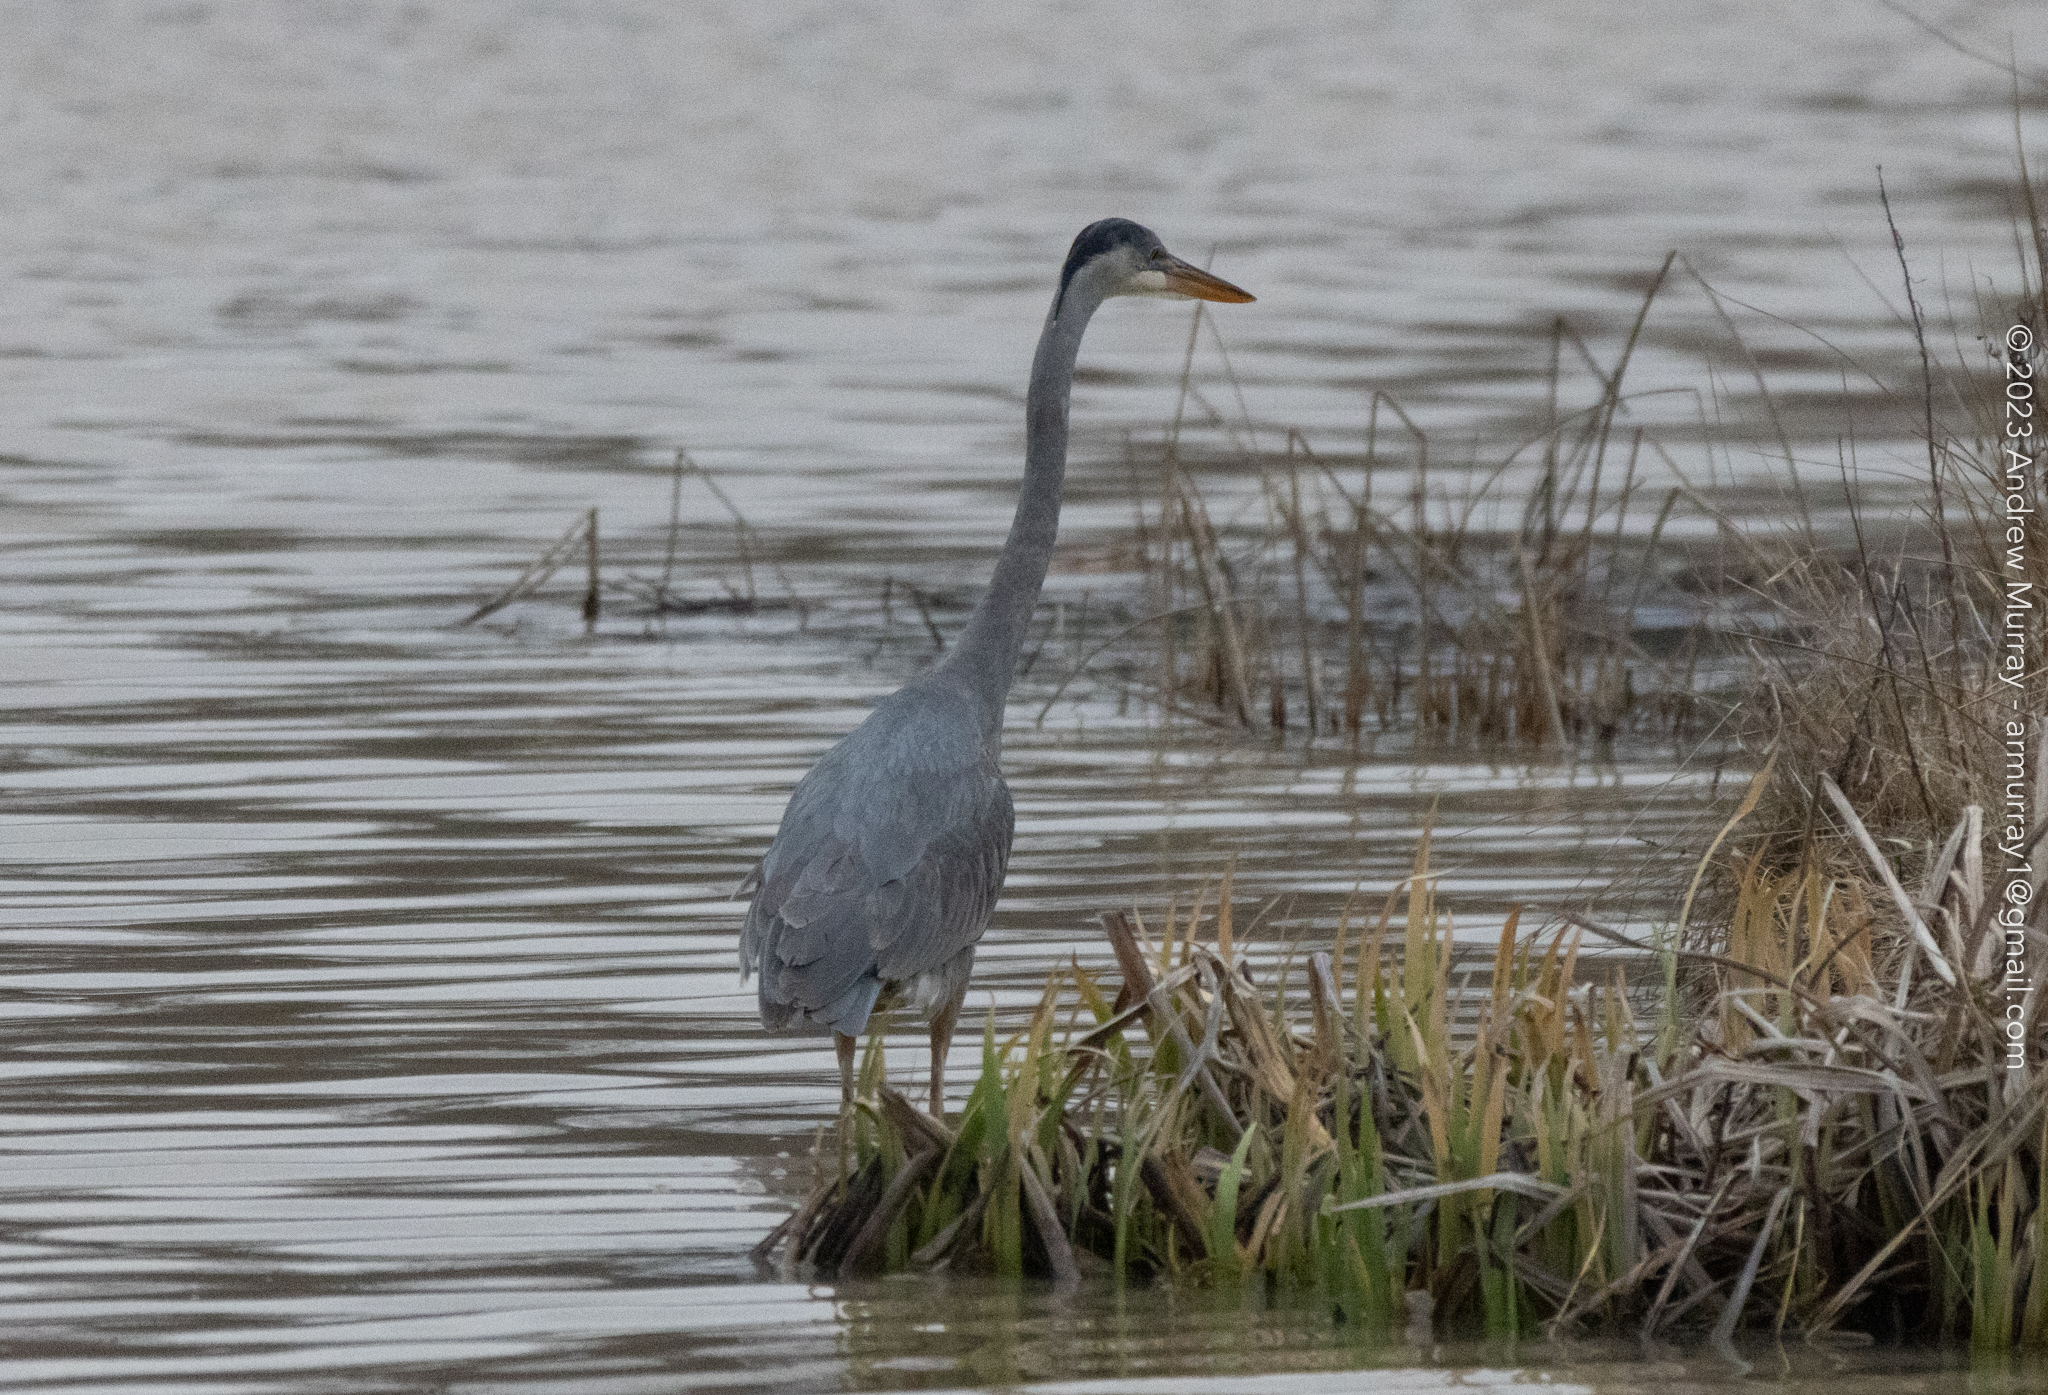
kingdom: Animalia
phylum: Chordata
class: Aves
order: Pelecaniformes
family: Ardeidae
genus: Ardea
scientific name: Ardea herodias
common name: Great blue heron
